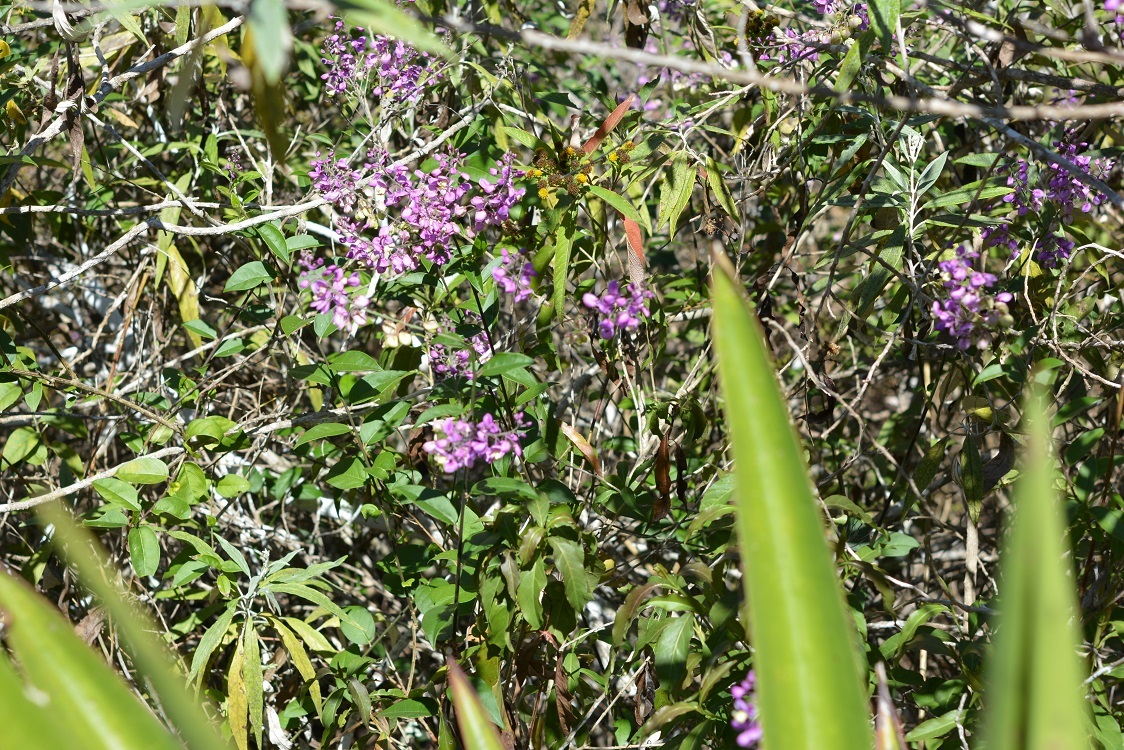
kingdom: Plantae
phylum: Tracheophyta
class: Magnoliopsida
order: Fabales
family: Polygalaceae
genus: Asemeia
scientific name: Asemeia floribunda
